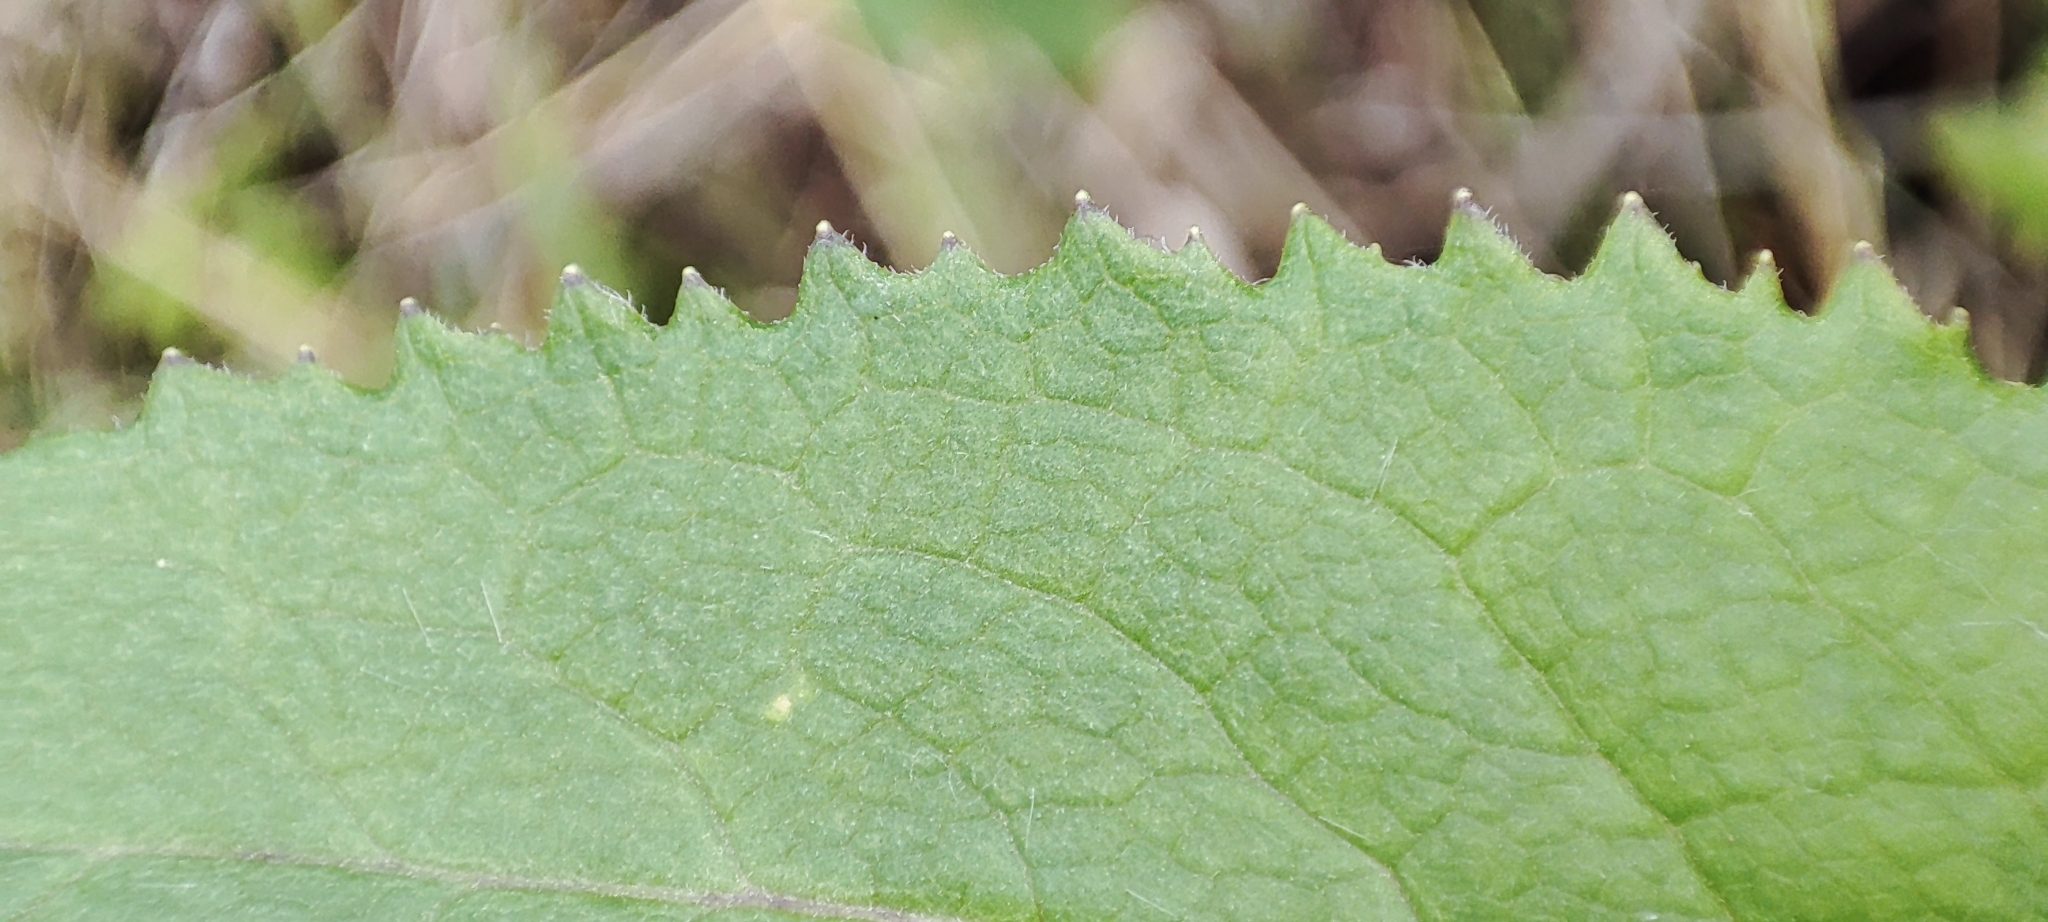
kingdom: Plantae
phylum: Tracheophyta
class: Magnoliopsida
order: Asterales
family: Asteraceae
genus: Senecio
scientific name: Senecio nemorensis
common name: Alpine ragwort
